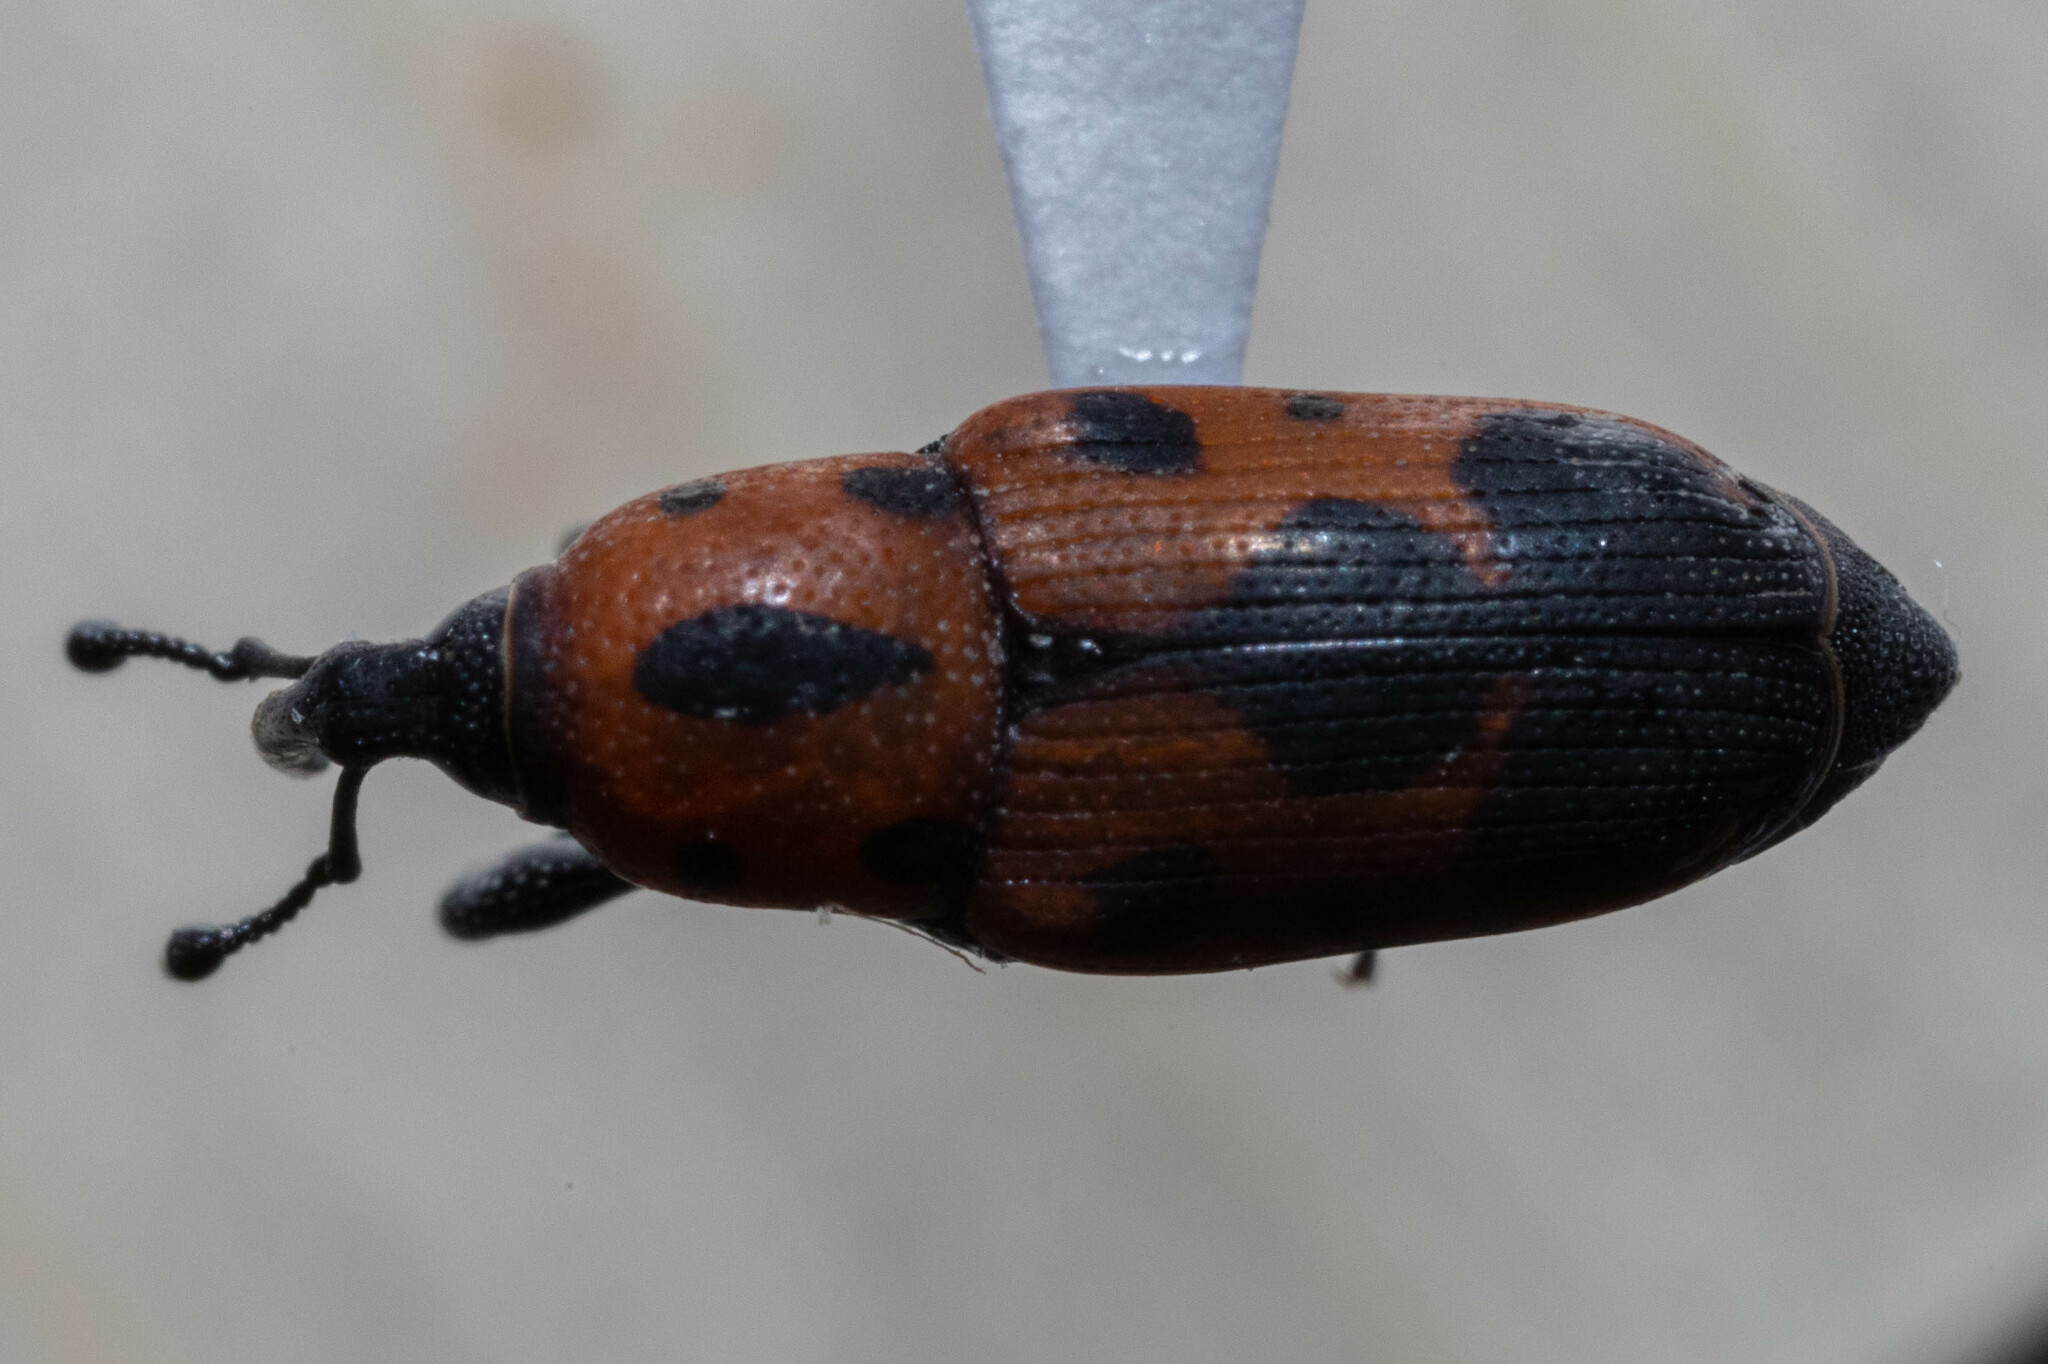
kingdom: Animalia
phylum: Arthropoda
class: Insecta
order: Coleoptera
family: Dryophthoridae
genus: Rhodobaenus
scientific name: Rhodobaenus quinquepunctatus
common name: Cocklebur weevil
